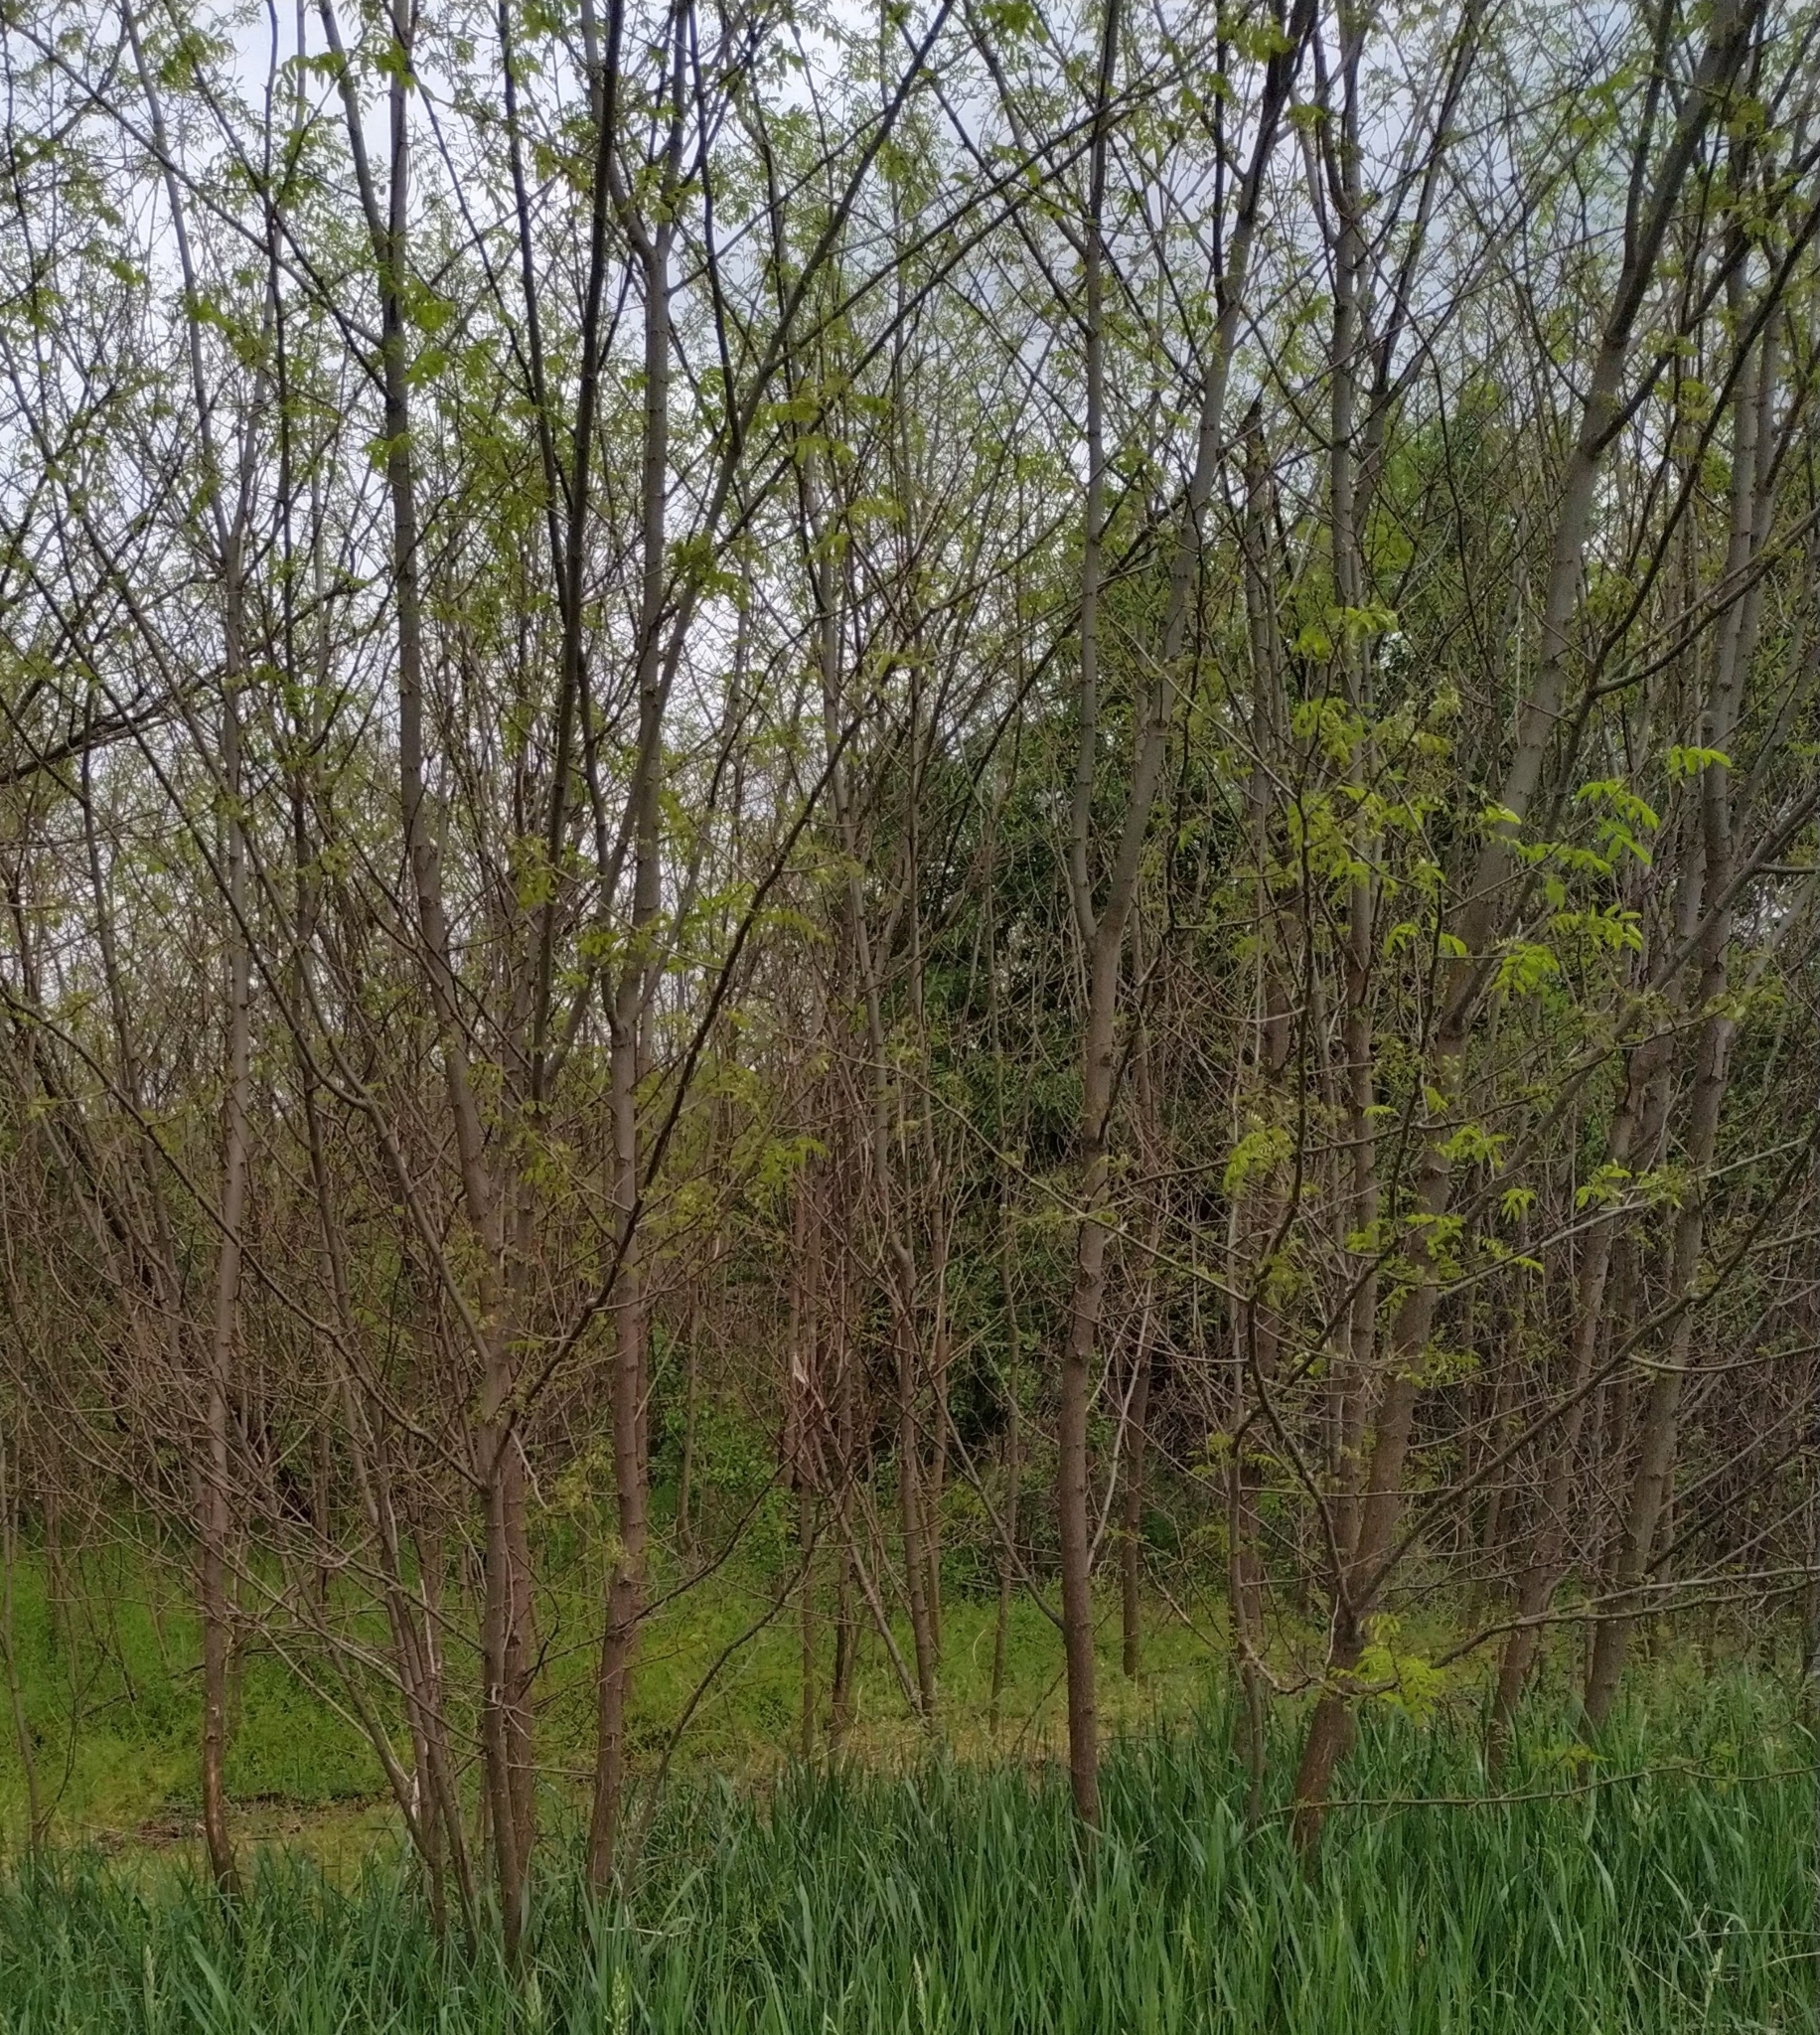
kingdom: Plantae
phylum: Tracheophyta
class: Magnoliopsida
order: Sapindales
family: Sapindaceae
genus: Acer
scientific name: Acer negundo
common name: Ashleaf maple
